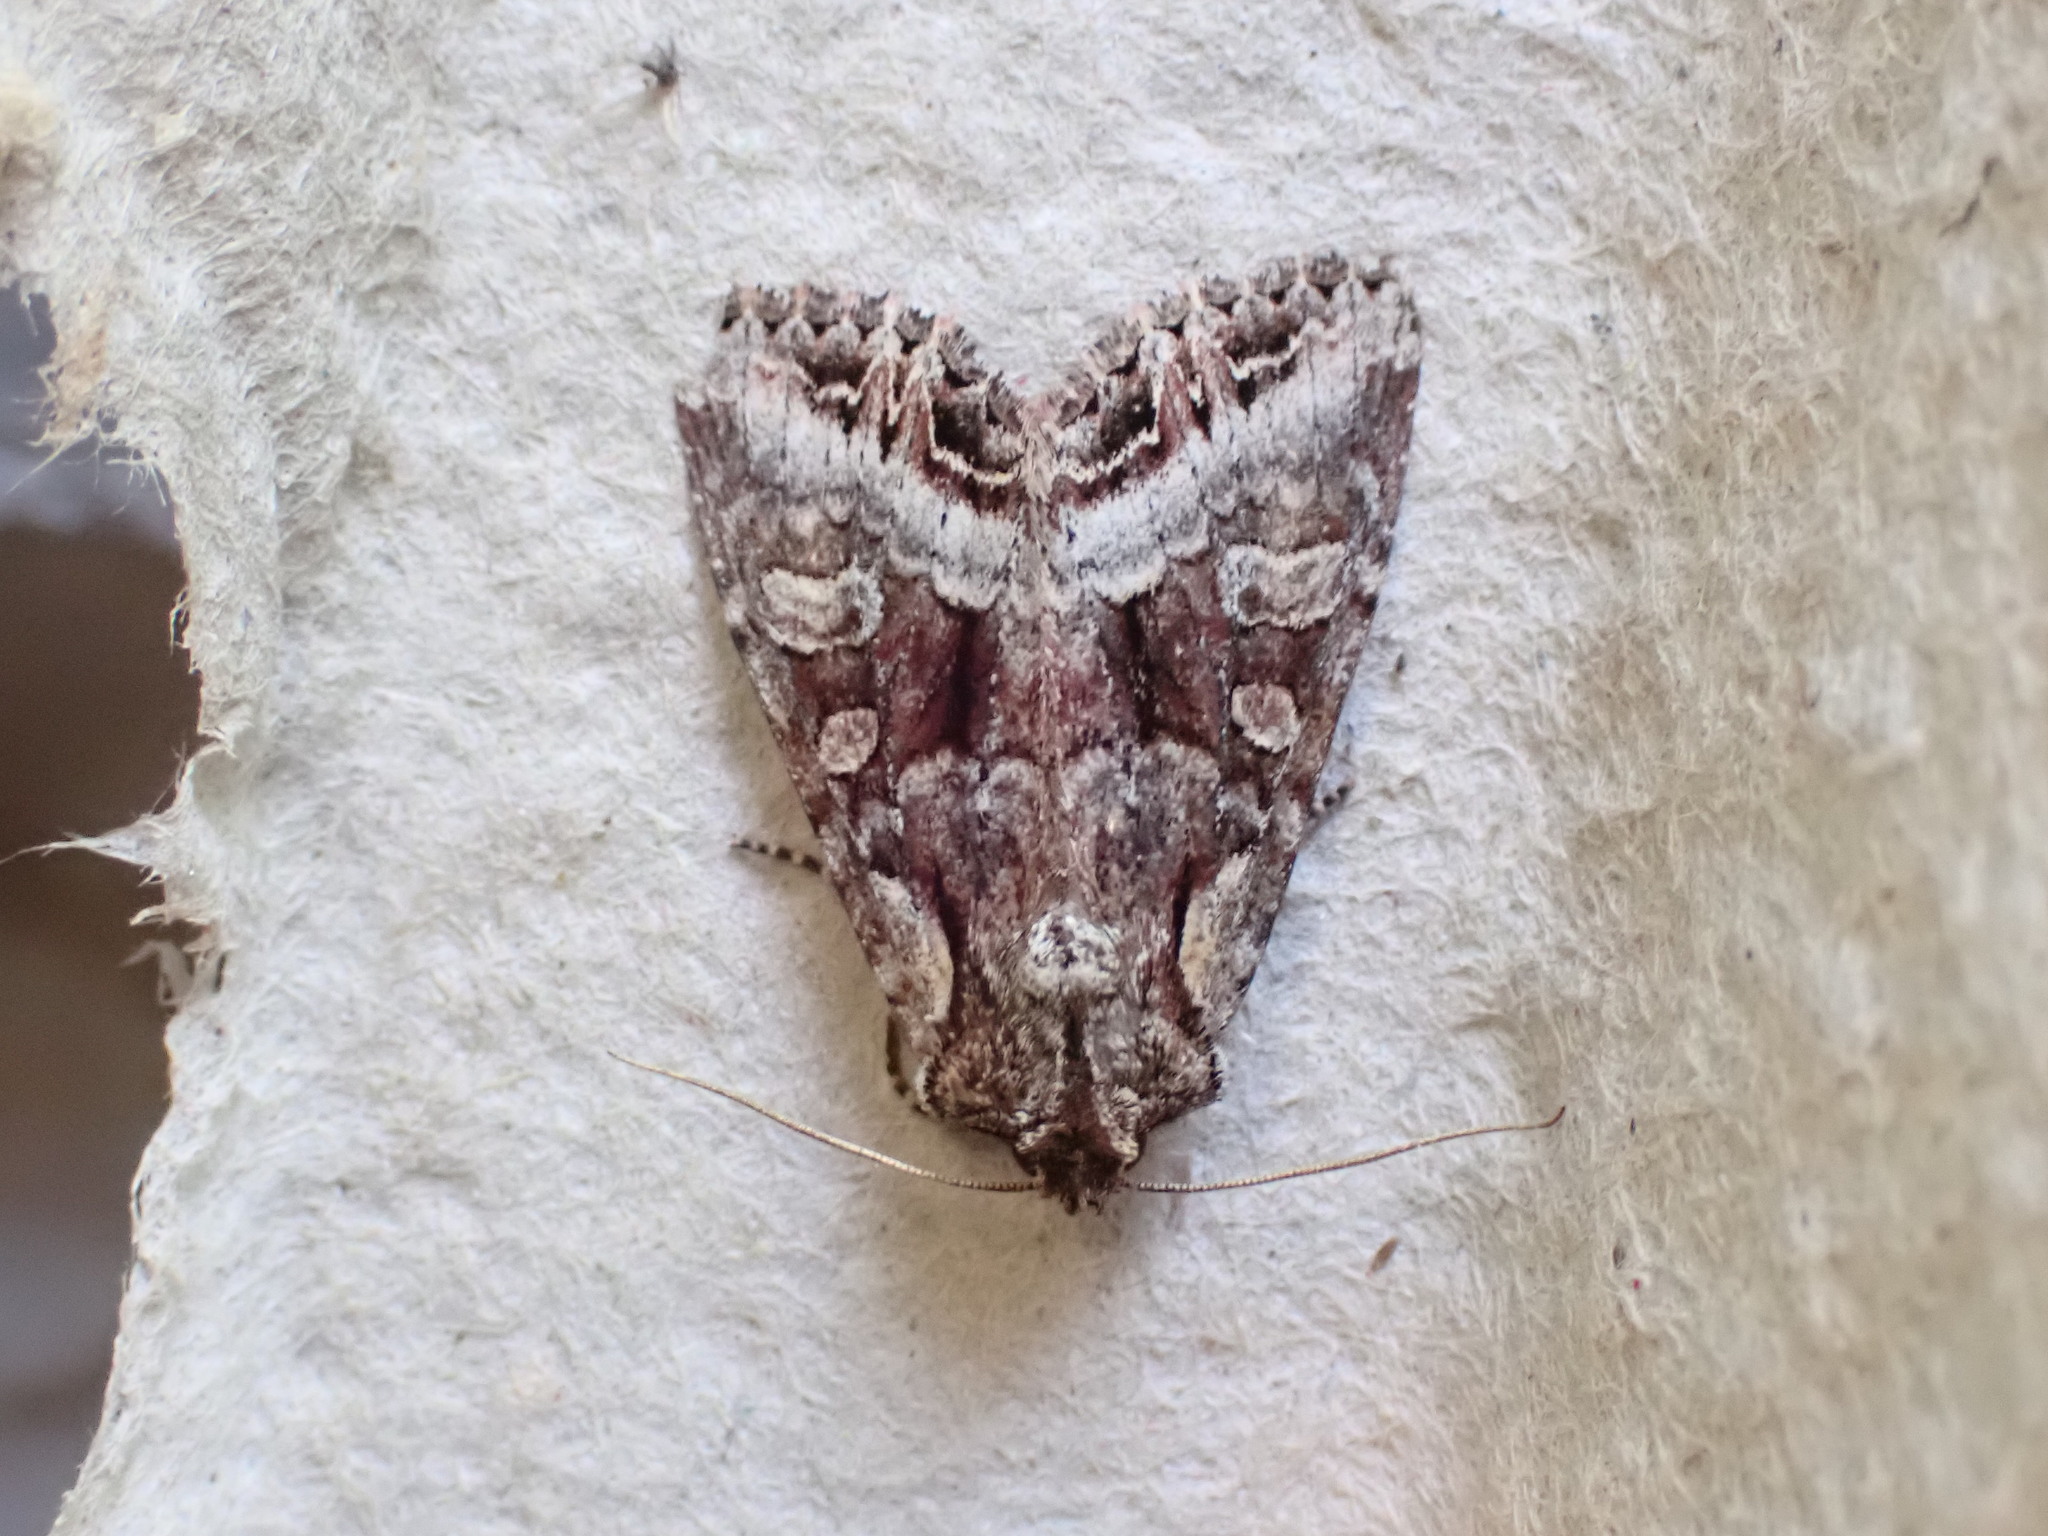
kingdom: Animalia
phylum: Arthropoda
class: Insecta
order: Lepidoptera
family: Noctuidae
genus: Lacanobia
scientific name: Lacanobia grandis
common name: Grand arches moth
